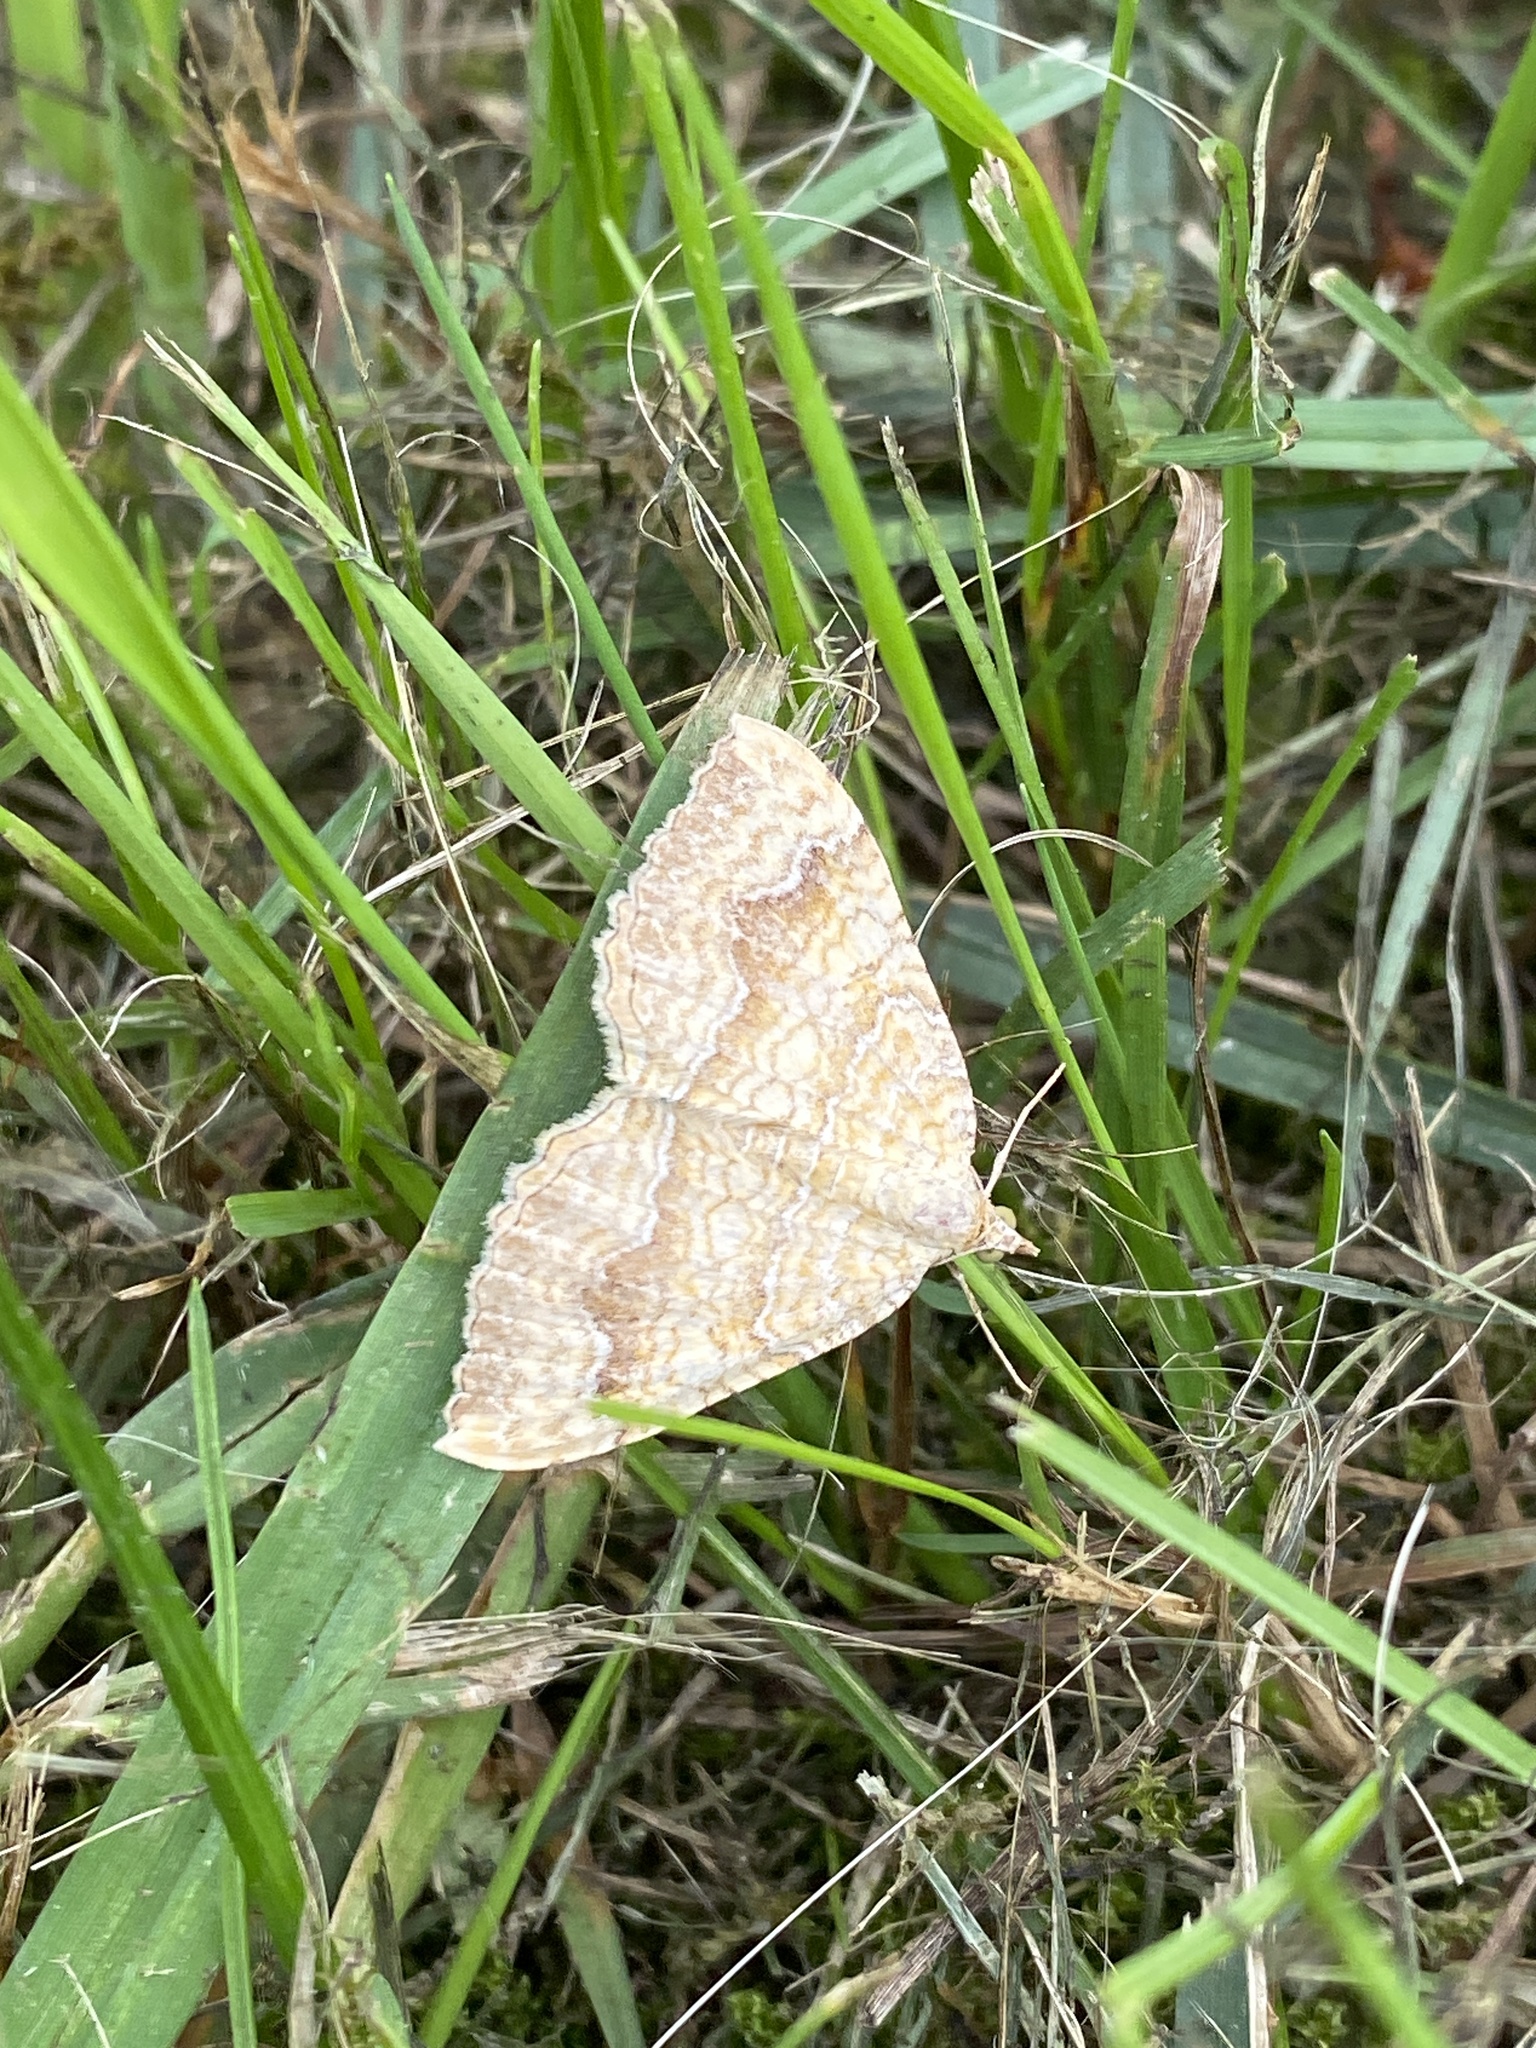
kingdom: Animalia
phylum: Arthropoda
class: Insecta
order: Lepidoptera
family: Geometridae
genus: Camptogramma
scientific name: Camptogramma bilineata
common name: Yellow shell
